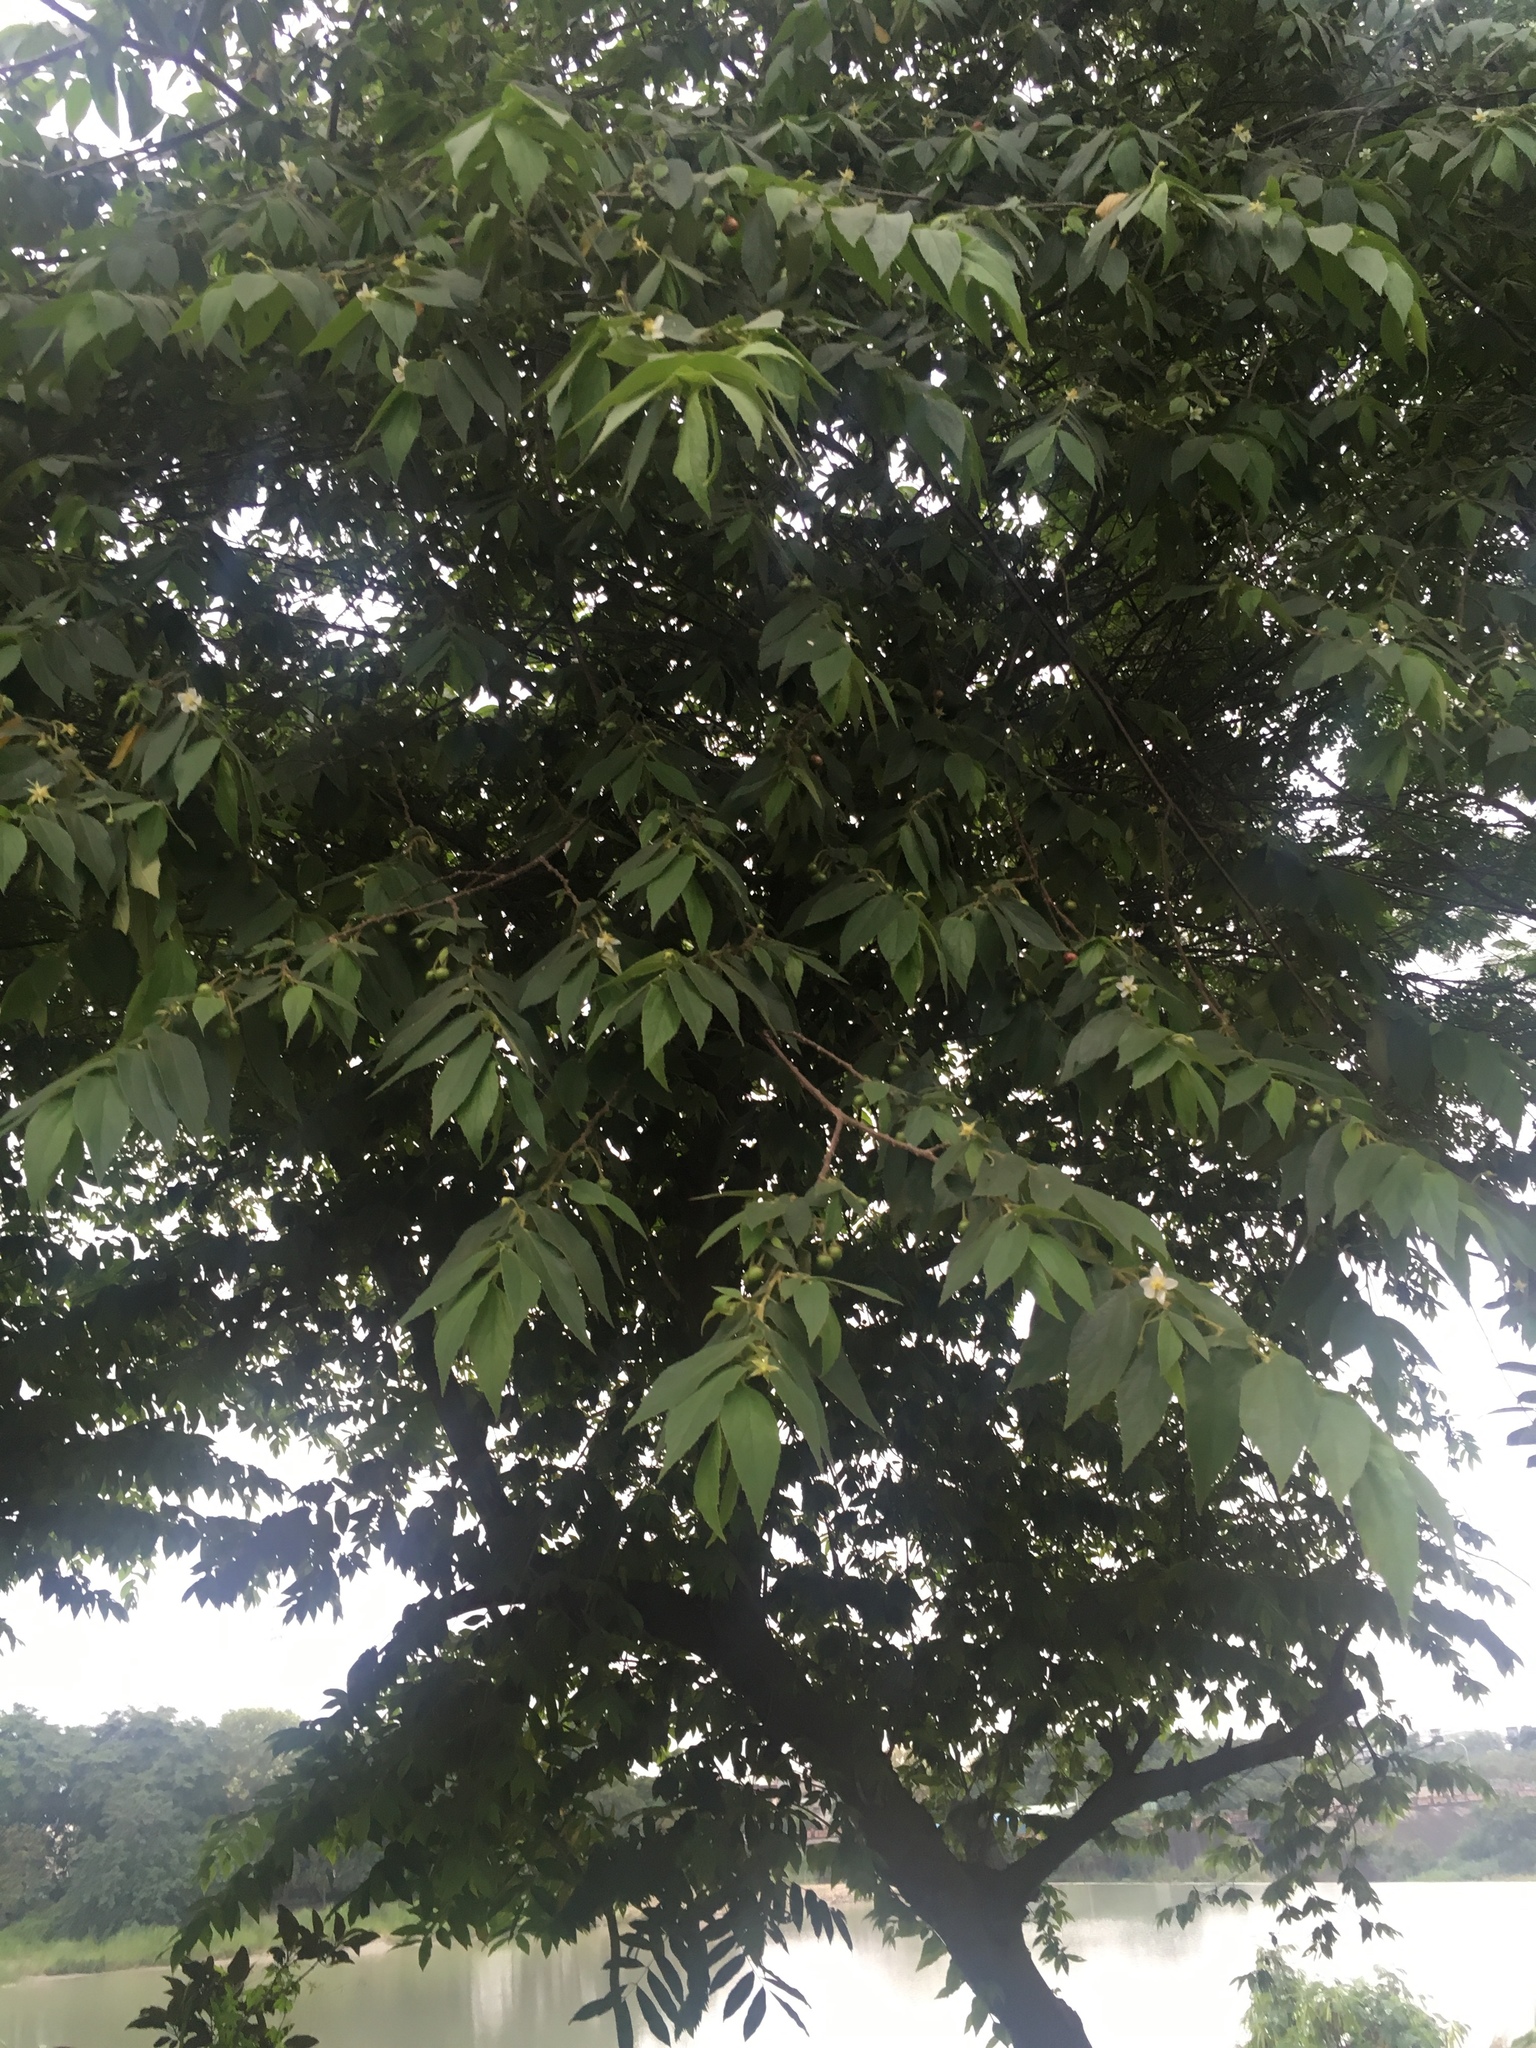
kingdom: Plantae
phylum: Tracheophyta
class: Magnoliopsida
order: Malvales
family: Muntingiaceae
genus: Muntingia
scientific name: Muntingia calabura
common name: Strawberrytree
